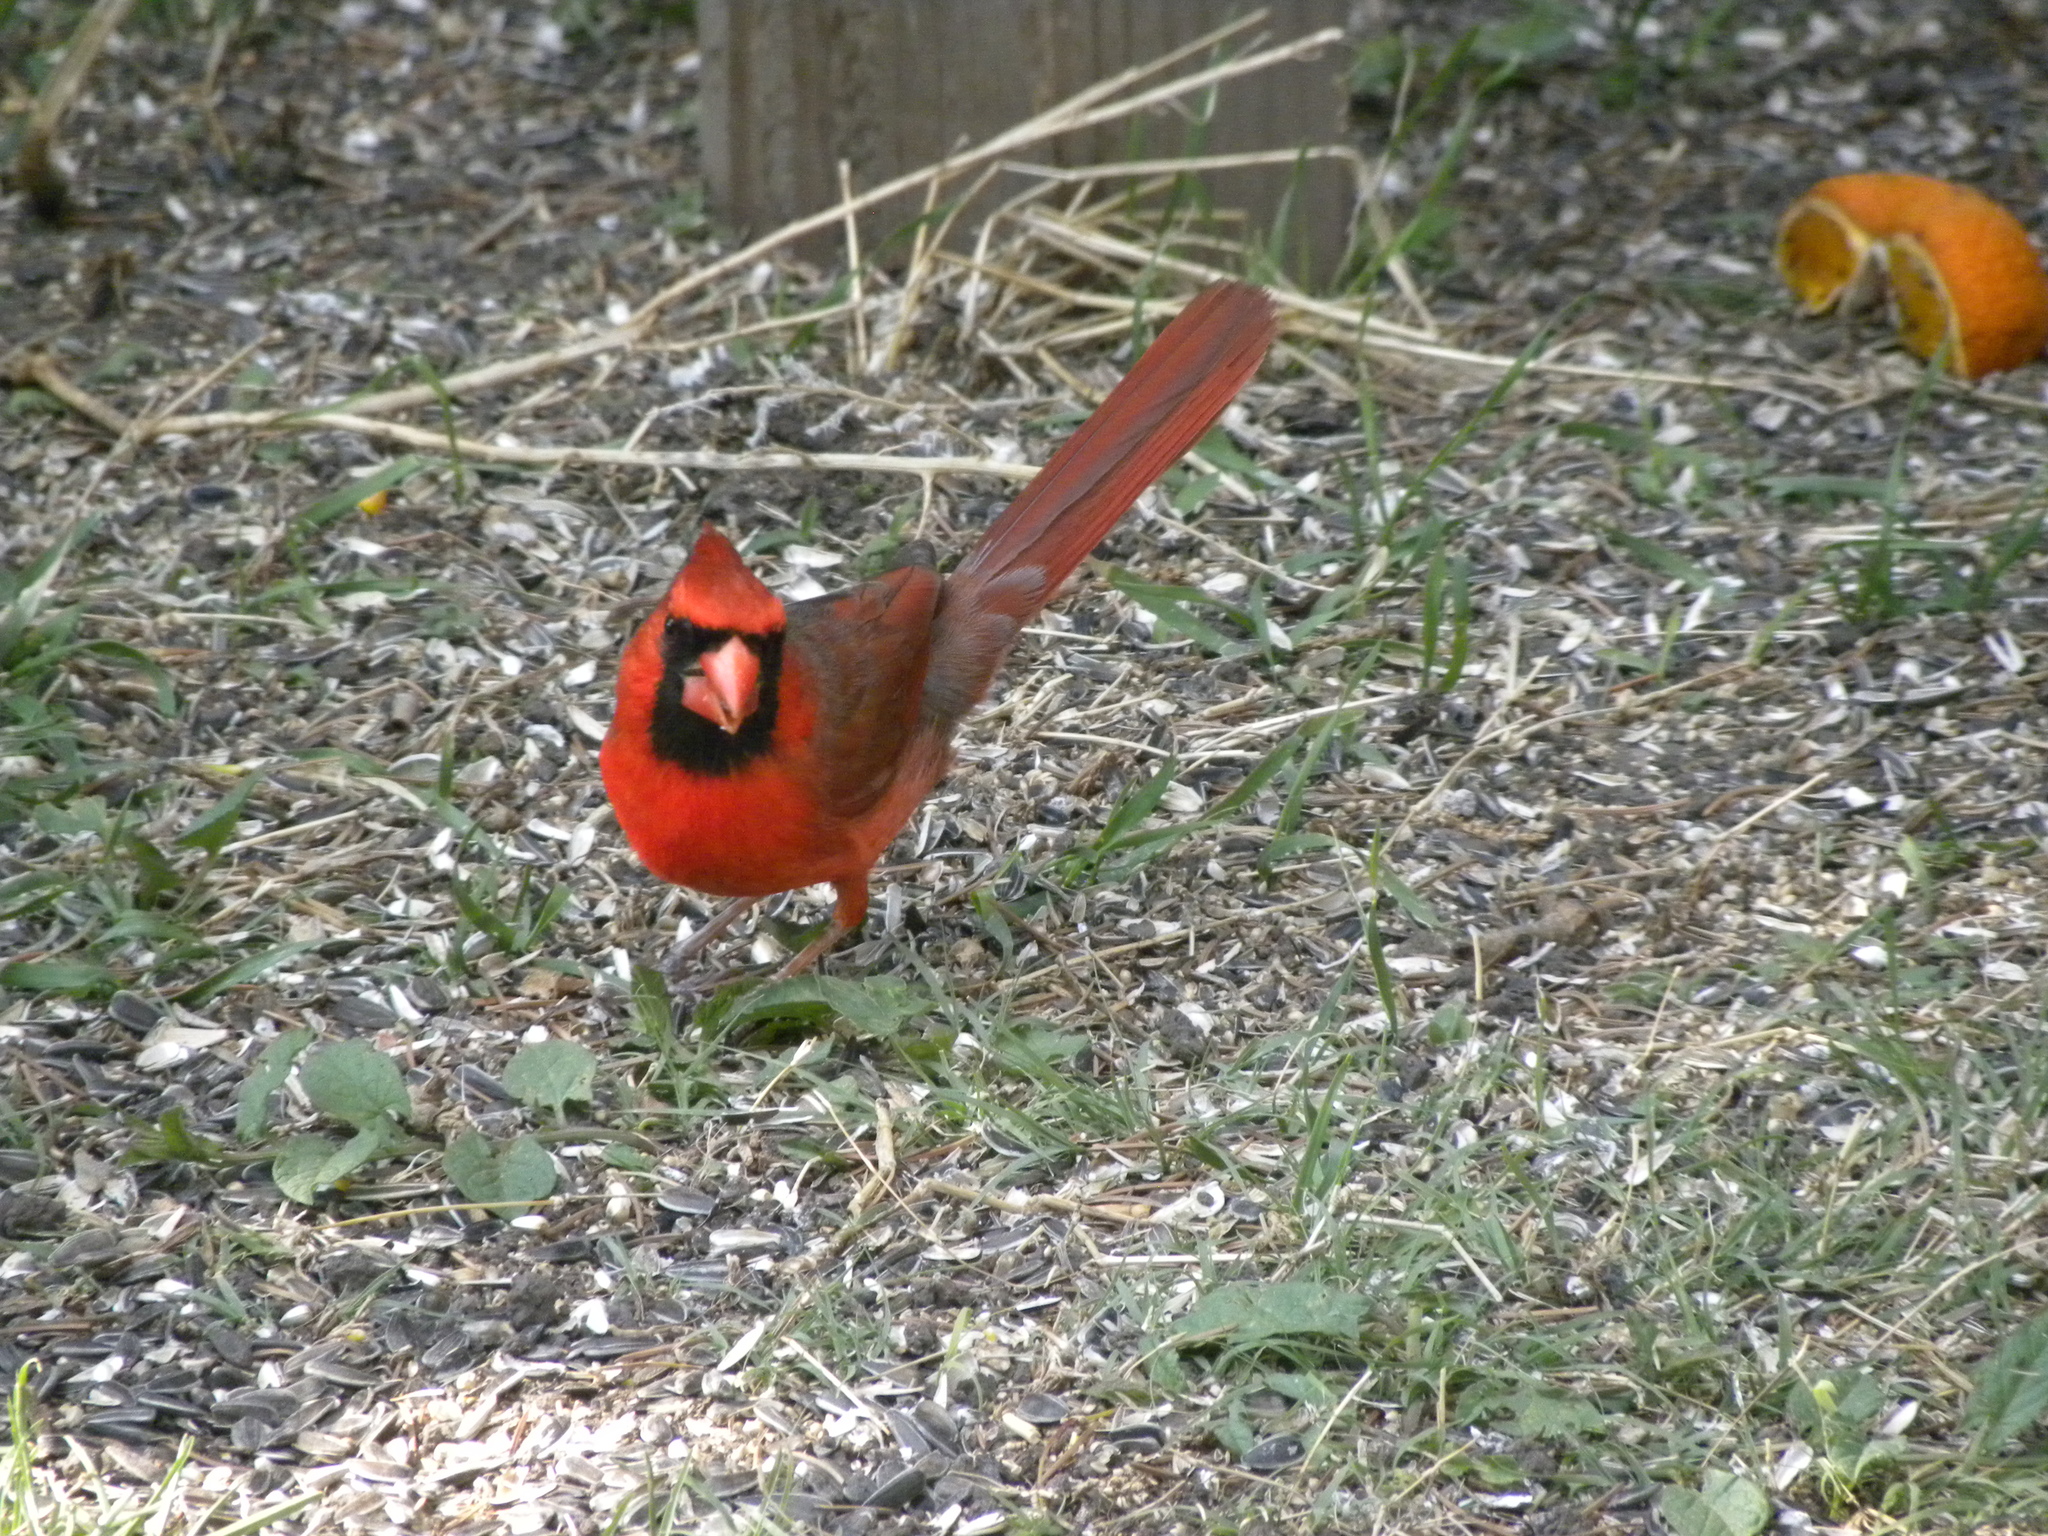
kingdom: Animalia
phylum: Chordata
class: Aves
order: Passeriformes
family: Cardinalidae
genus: Cardinalis
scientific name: Cardinalis cardinalis
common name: Northern cardinal
